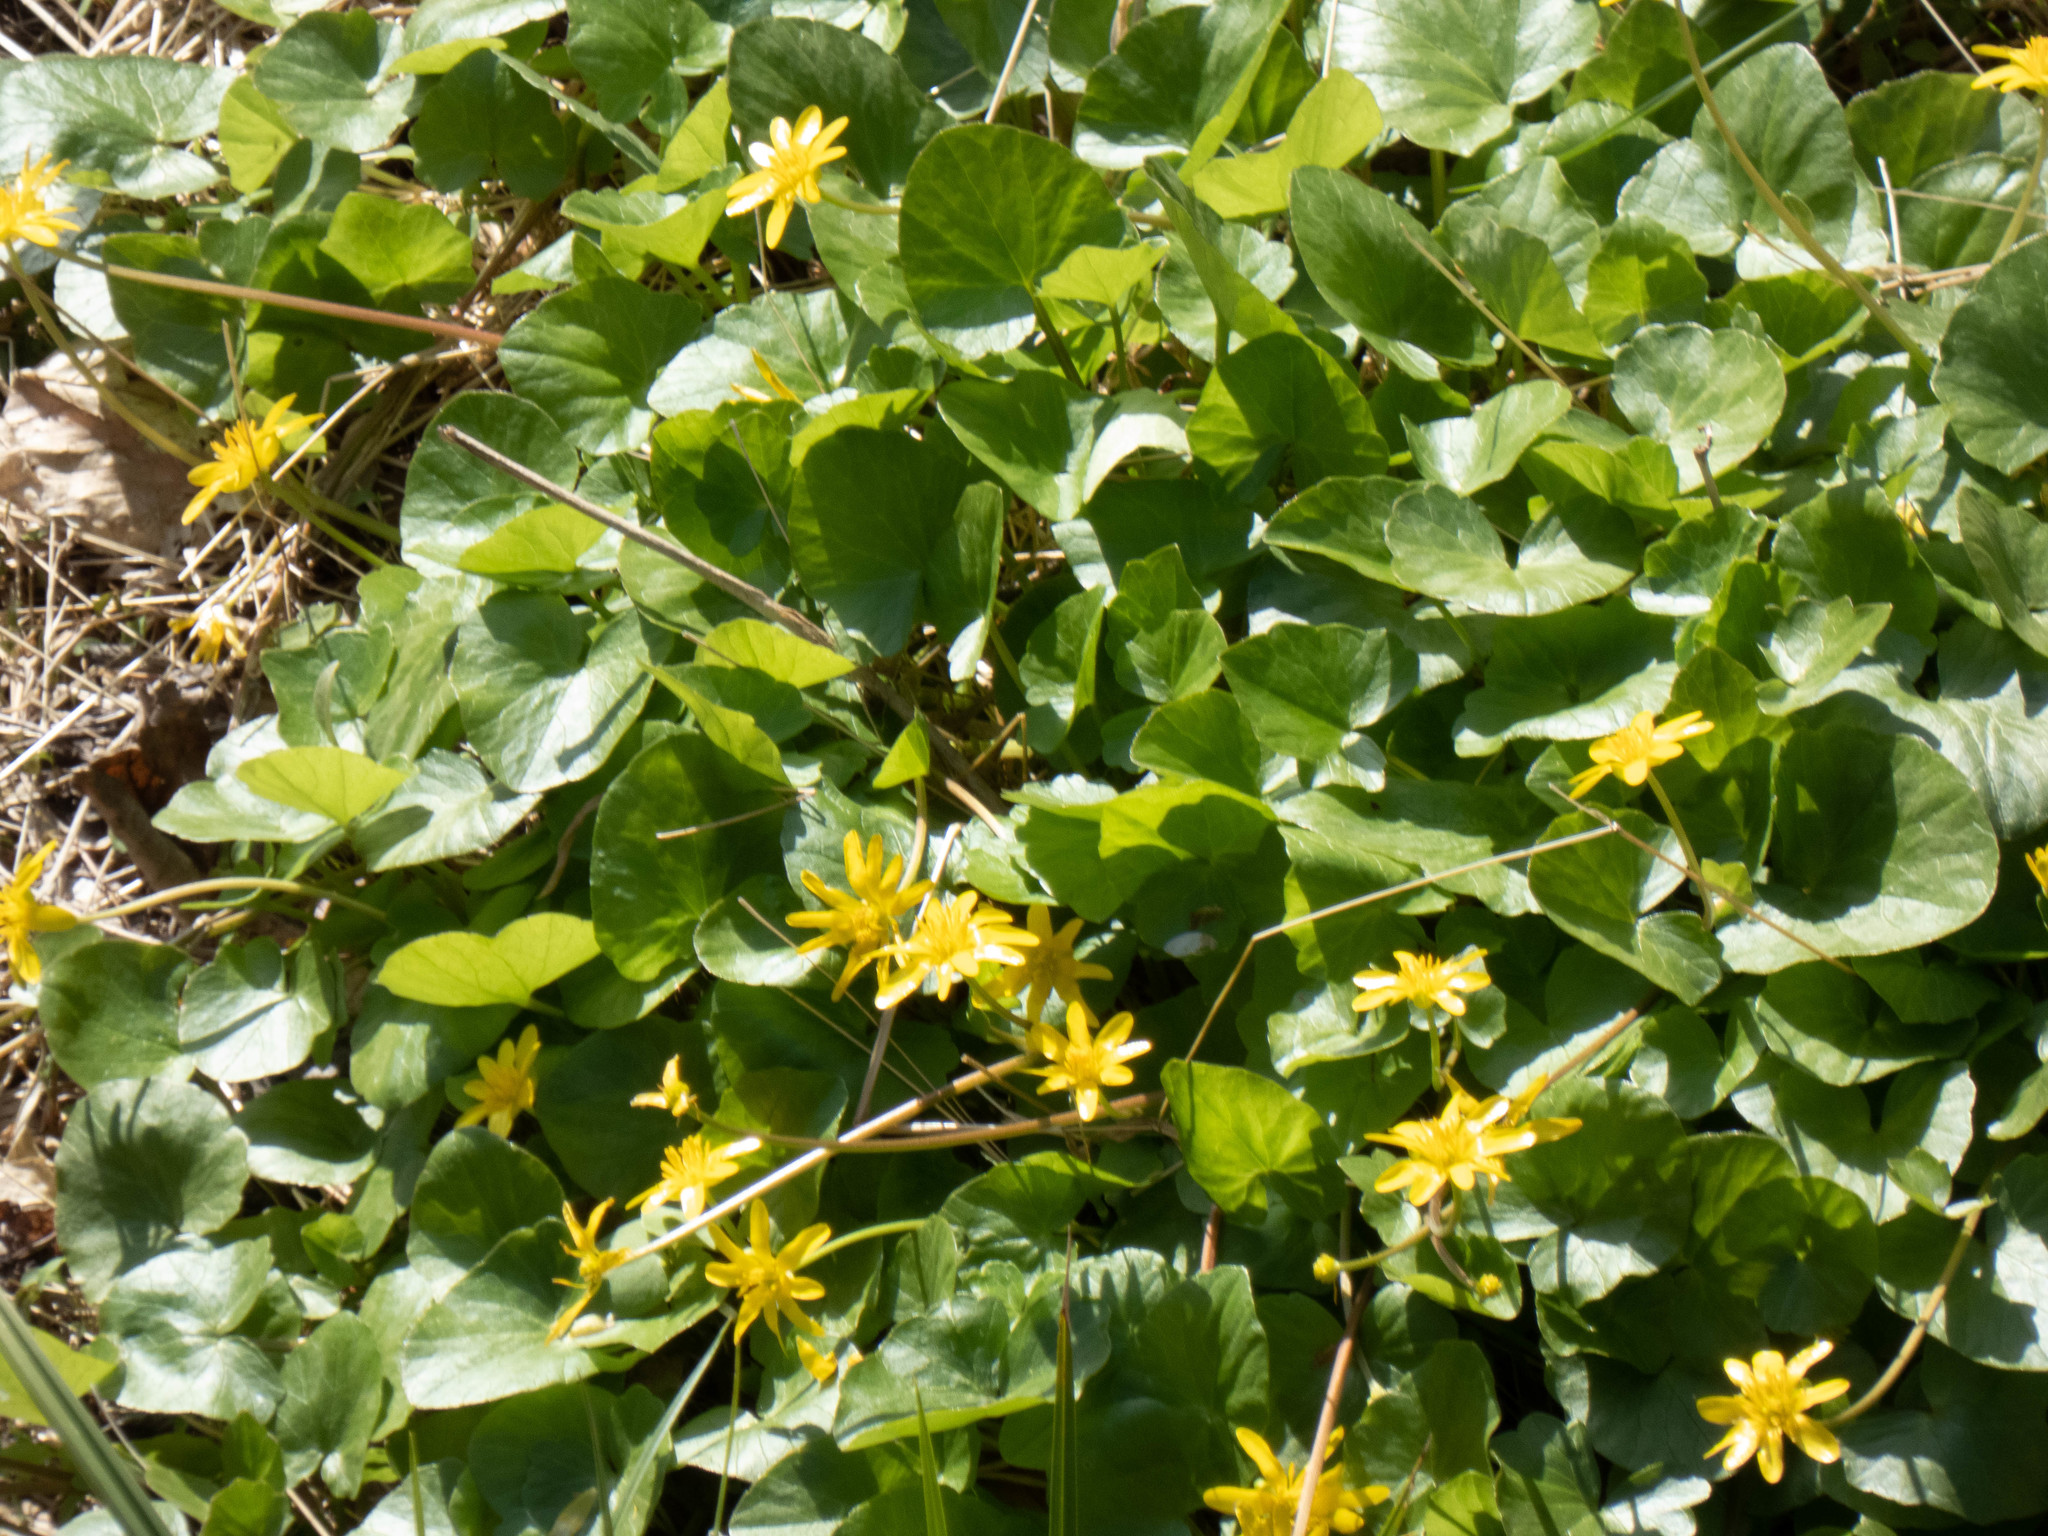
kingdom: Plantae
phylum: Tracheophyta
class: Magnoliopsida
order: Ranunculales
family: Ranunculaceae
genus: Ficaria
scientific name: Ficaria verna
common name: Lesser celandine
